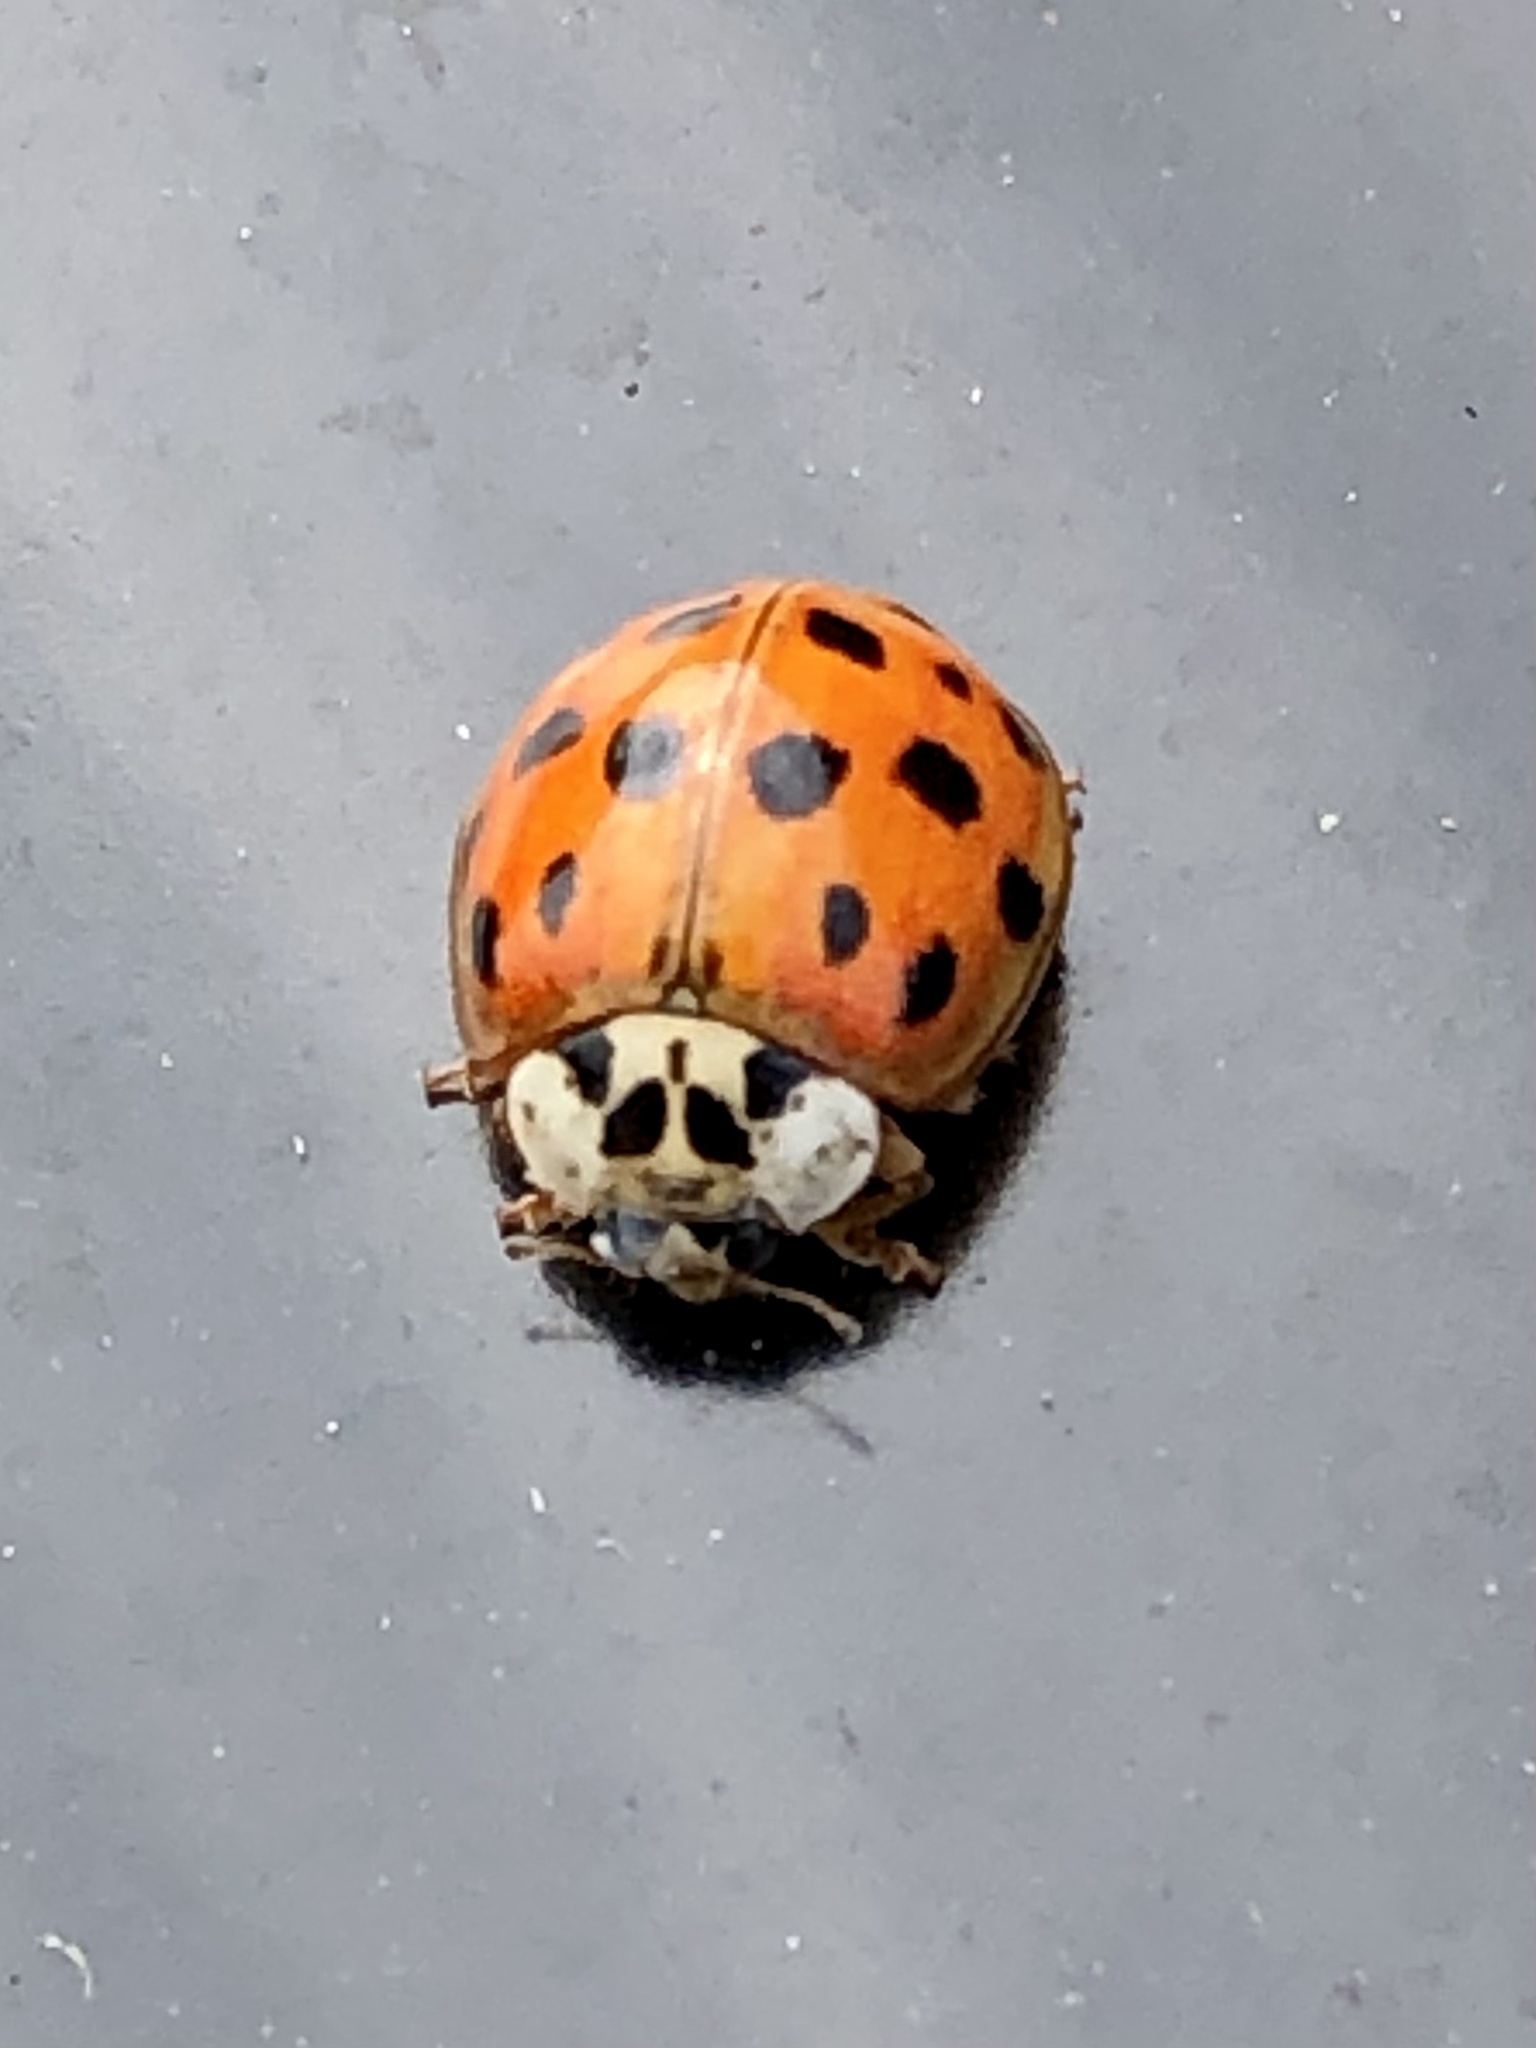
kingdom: Animalia
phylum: Arthropoda
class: Insecta
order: Coleoptera
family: Coccinellidae
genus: Harmonia
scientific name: Harmonia axyridis
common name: Harlequin ladybird
